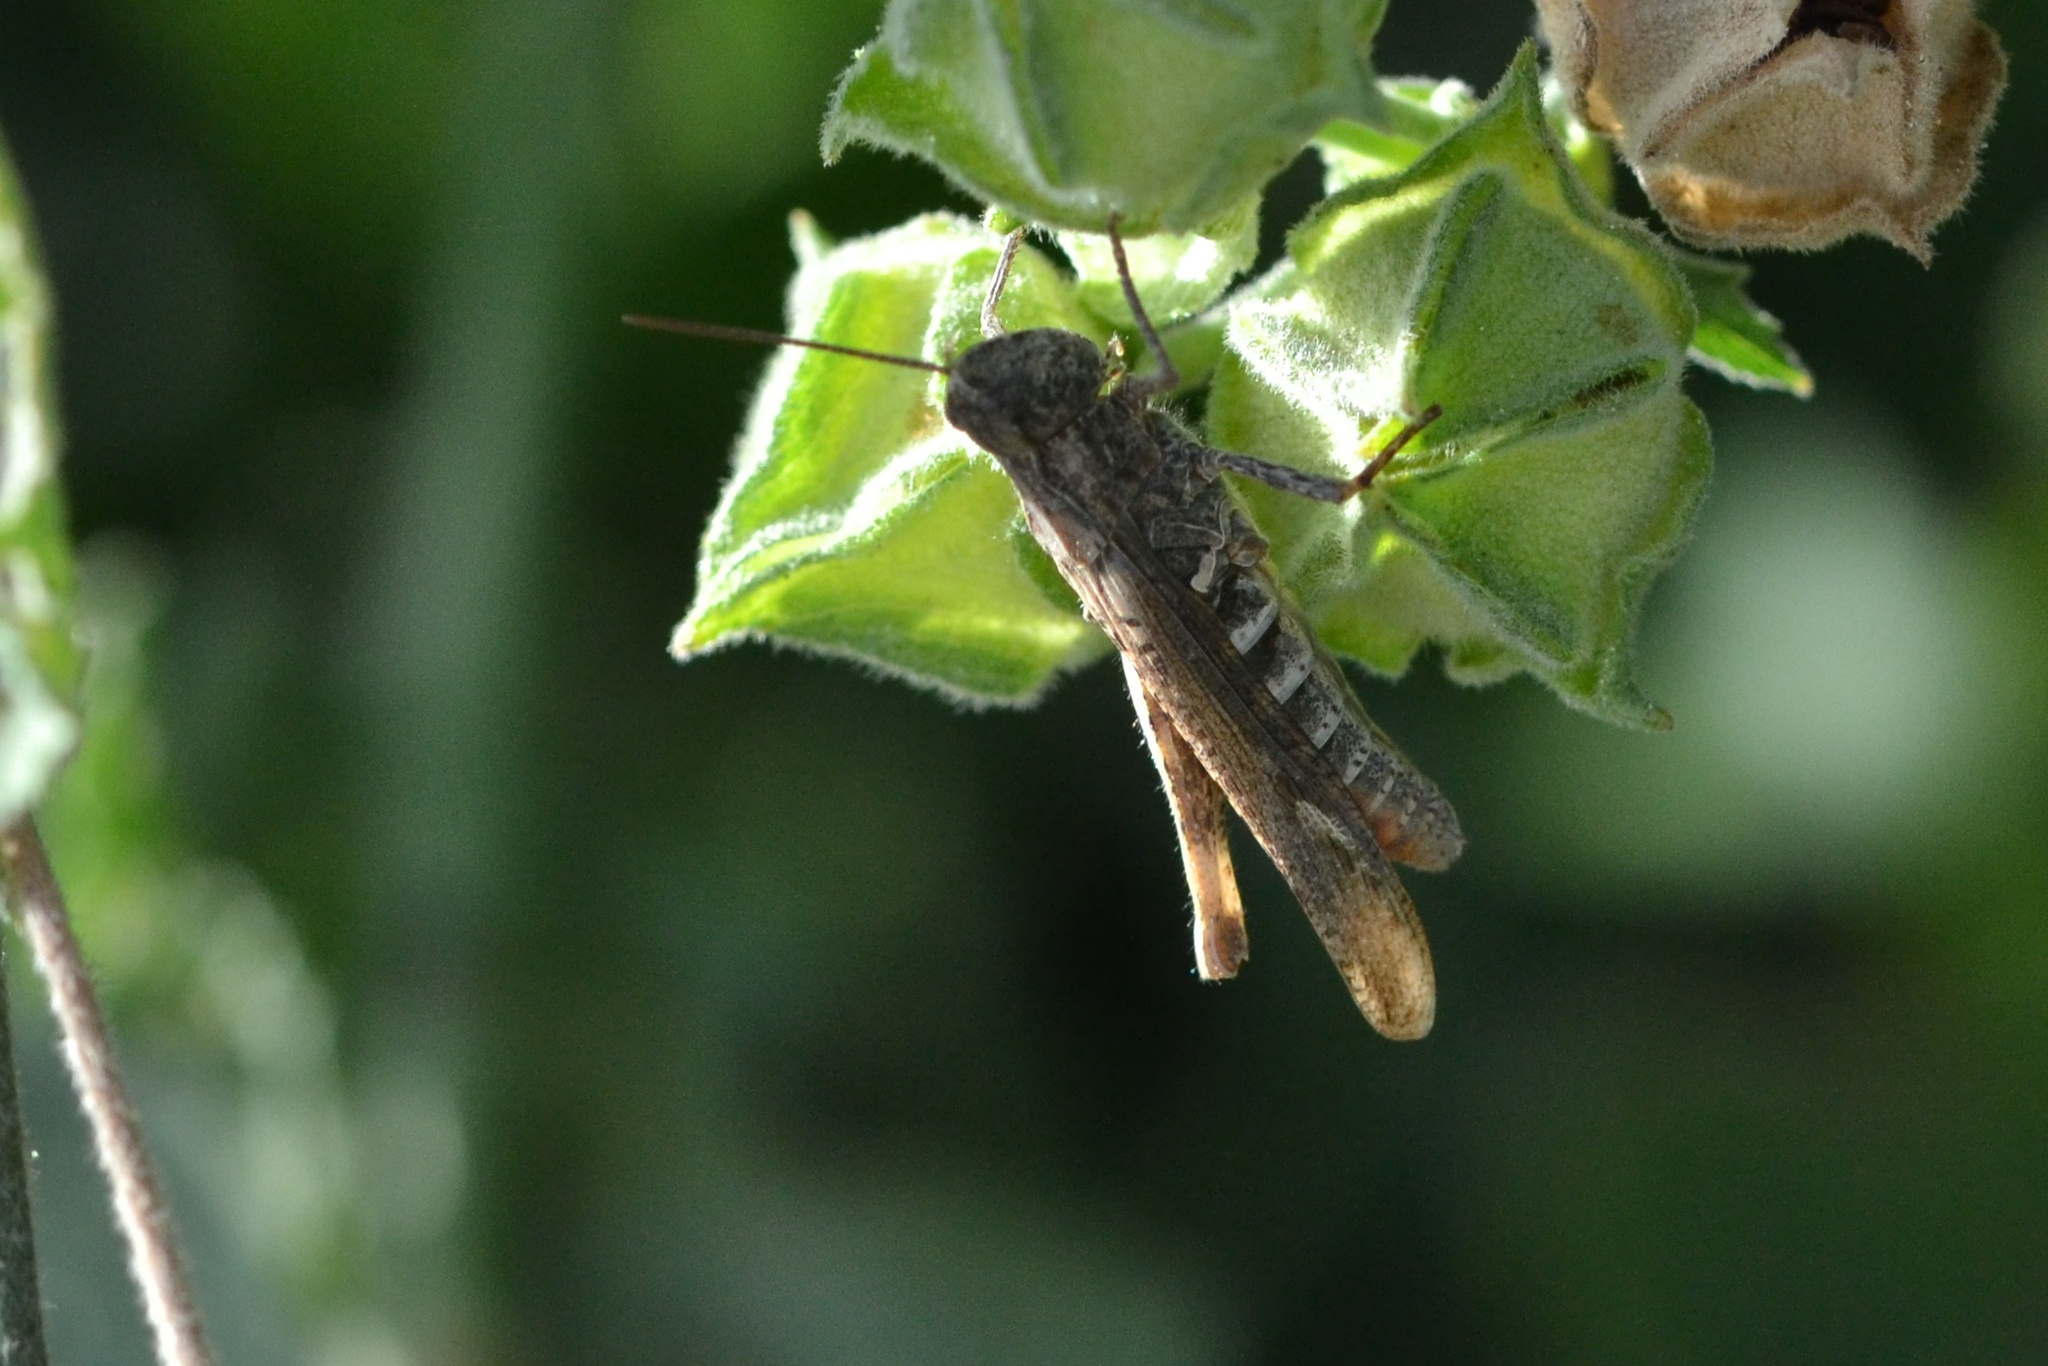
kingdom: Animalia
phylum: Arthropoda
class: Insecta
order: Orthoptera
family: Acrididae
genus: Chorthippus
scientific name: Chorthippus brunneus
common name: Field grasshopper
